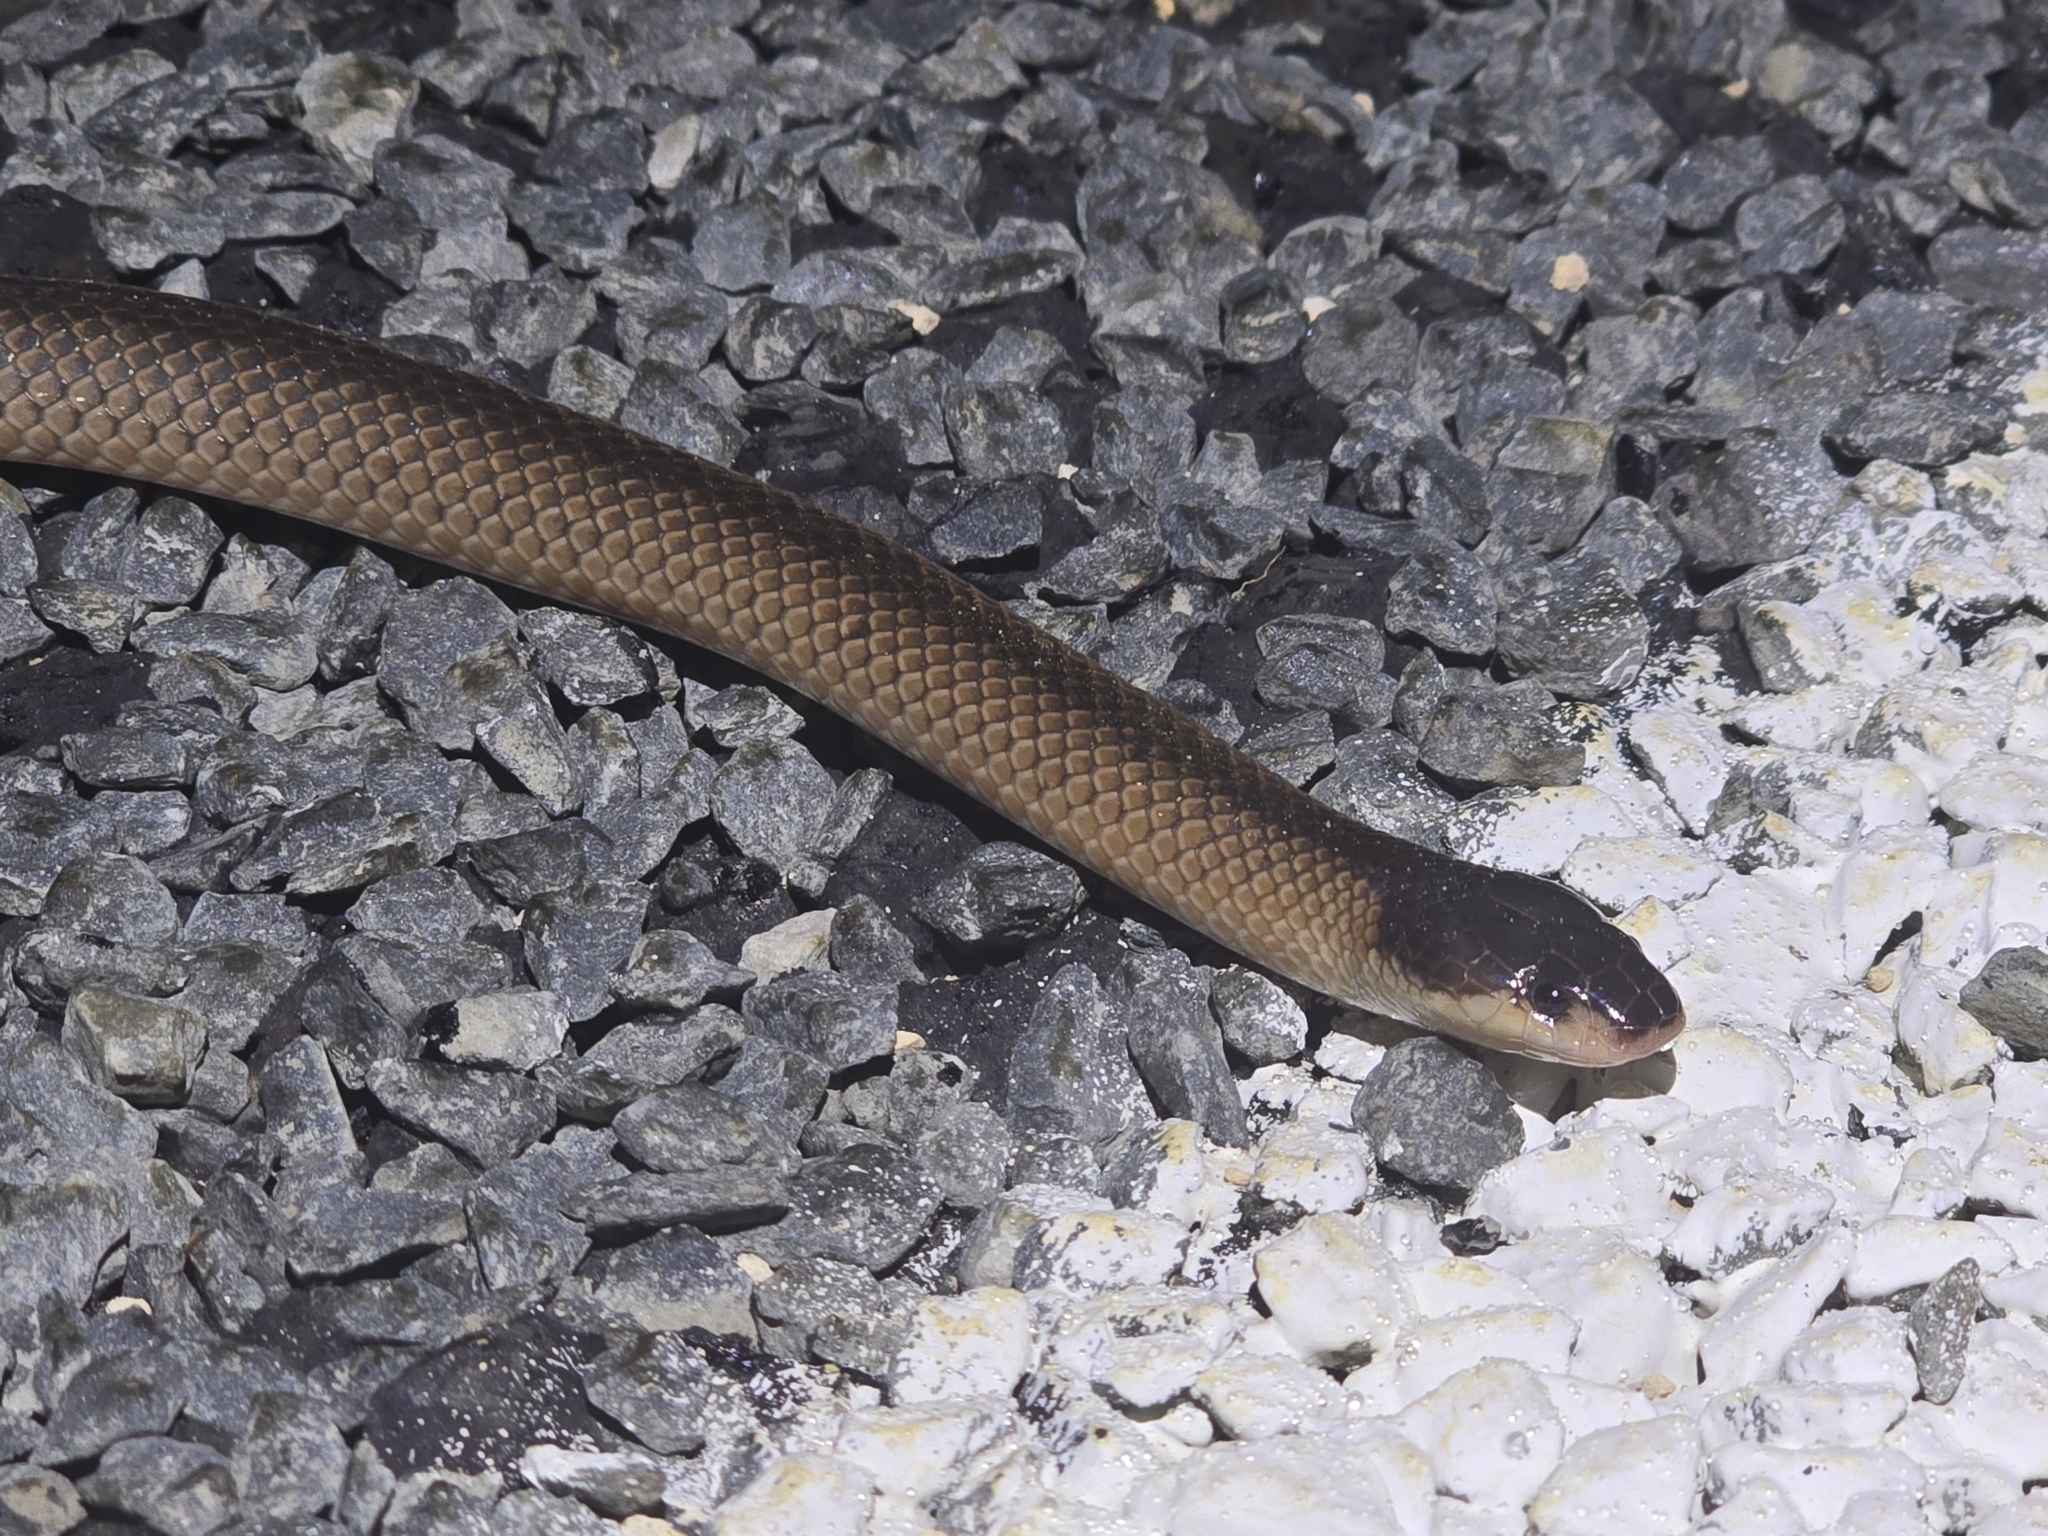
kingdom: Animalia
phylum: Chordata
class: Squamata
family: Elapidae
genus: Suta
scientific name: Suta nigriceps
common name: Mallee black-backed snake
